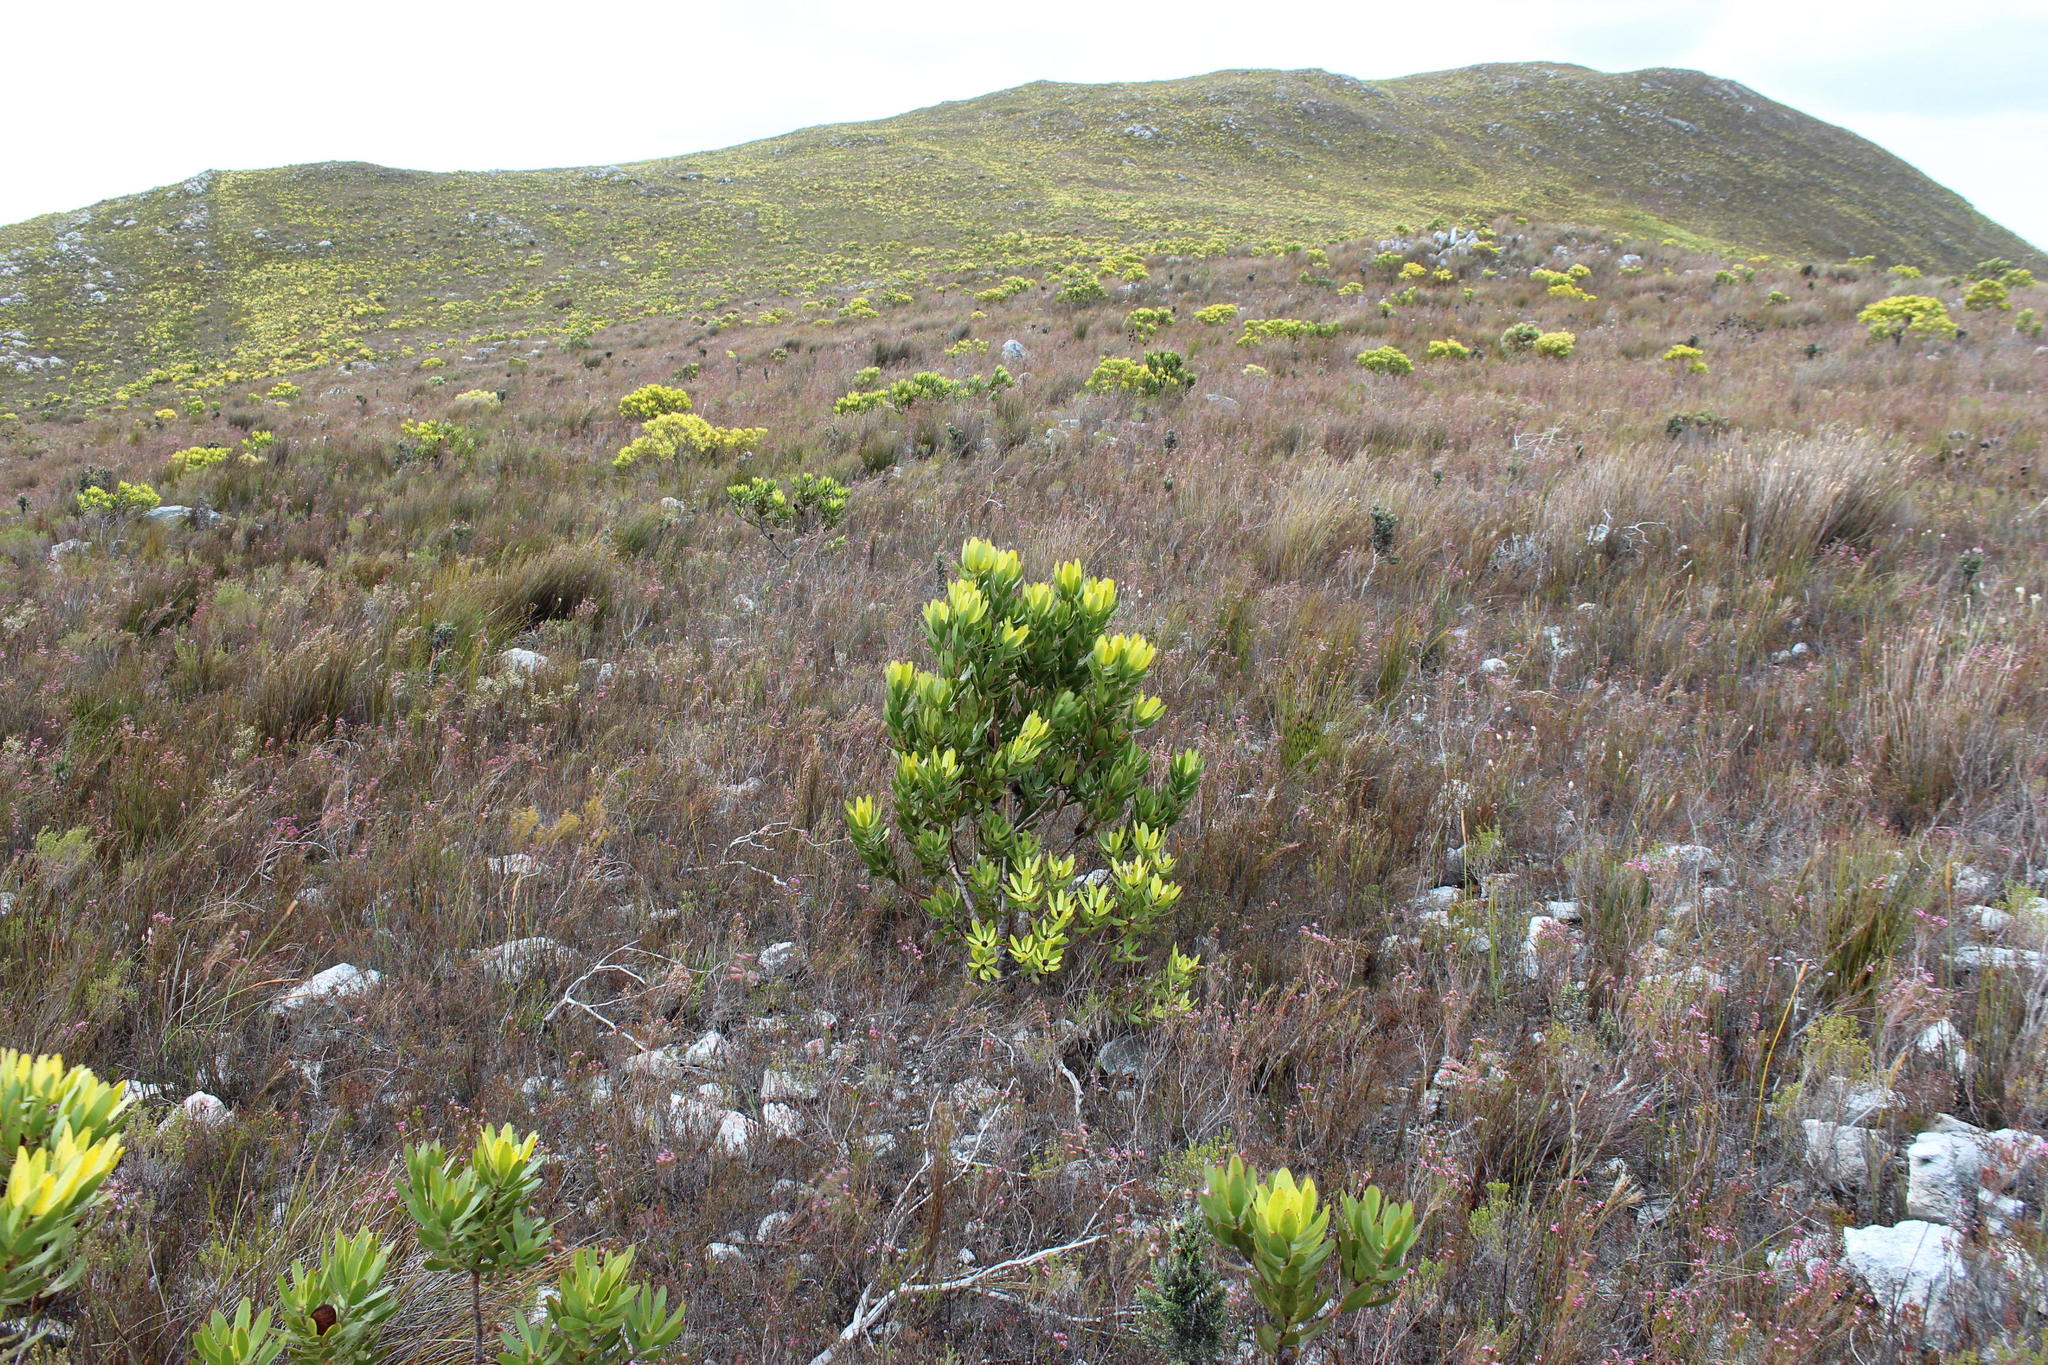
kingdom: Plantae
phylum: Tracheophyta
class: Magnoliopsida
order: Proteales
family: Proteaceae
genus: Leucadendron
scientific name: Leucadendron gandogeri
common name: Broad-leaf conebush
